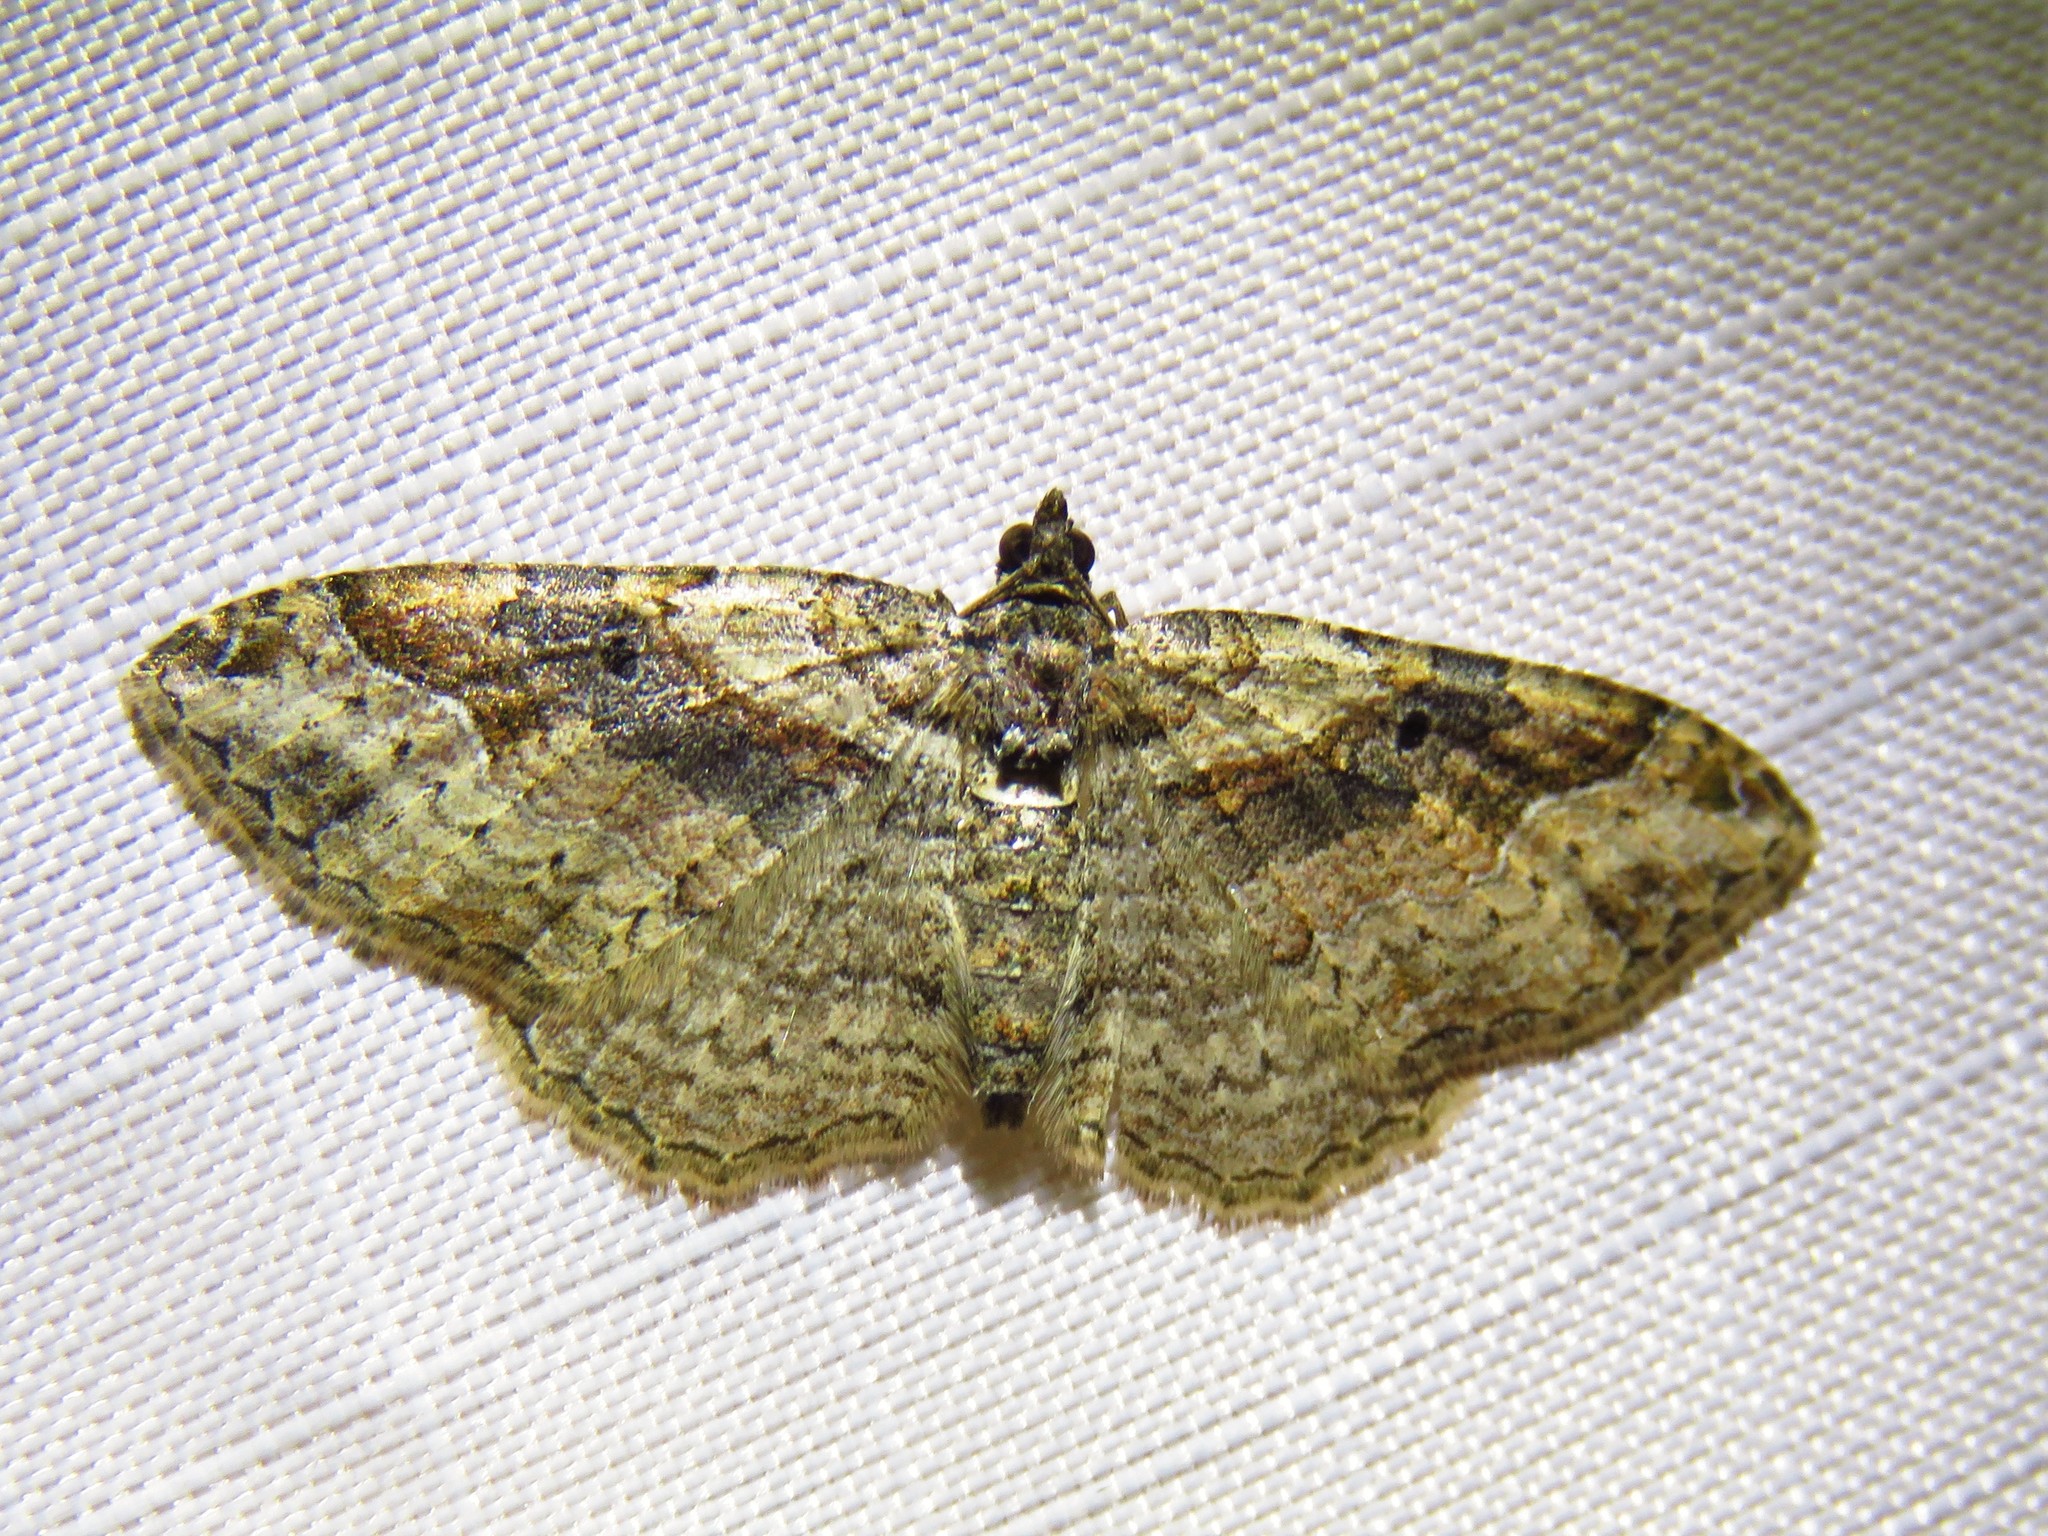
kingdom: Animalia
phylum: Arthropoda
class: Insecta
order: Lepidoptera
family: Geometridae
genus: Costaconvexa
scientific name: Costaconvexa centrostrigaria
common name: Bent-line carpet
